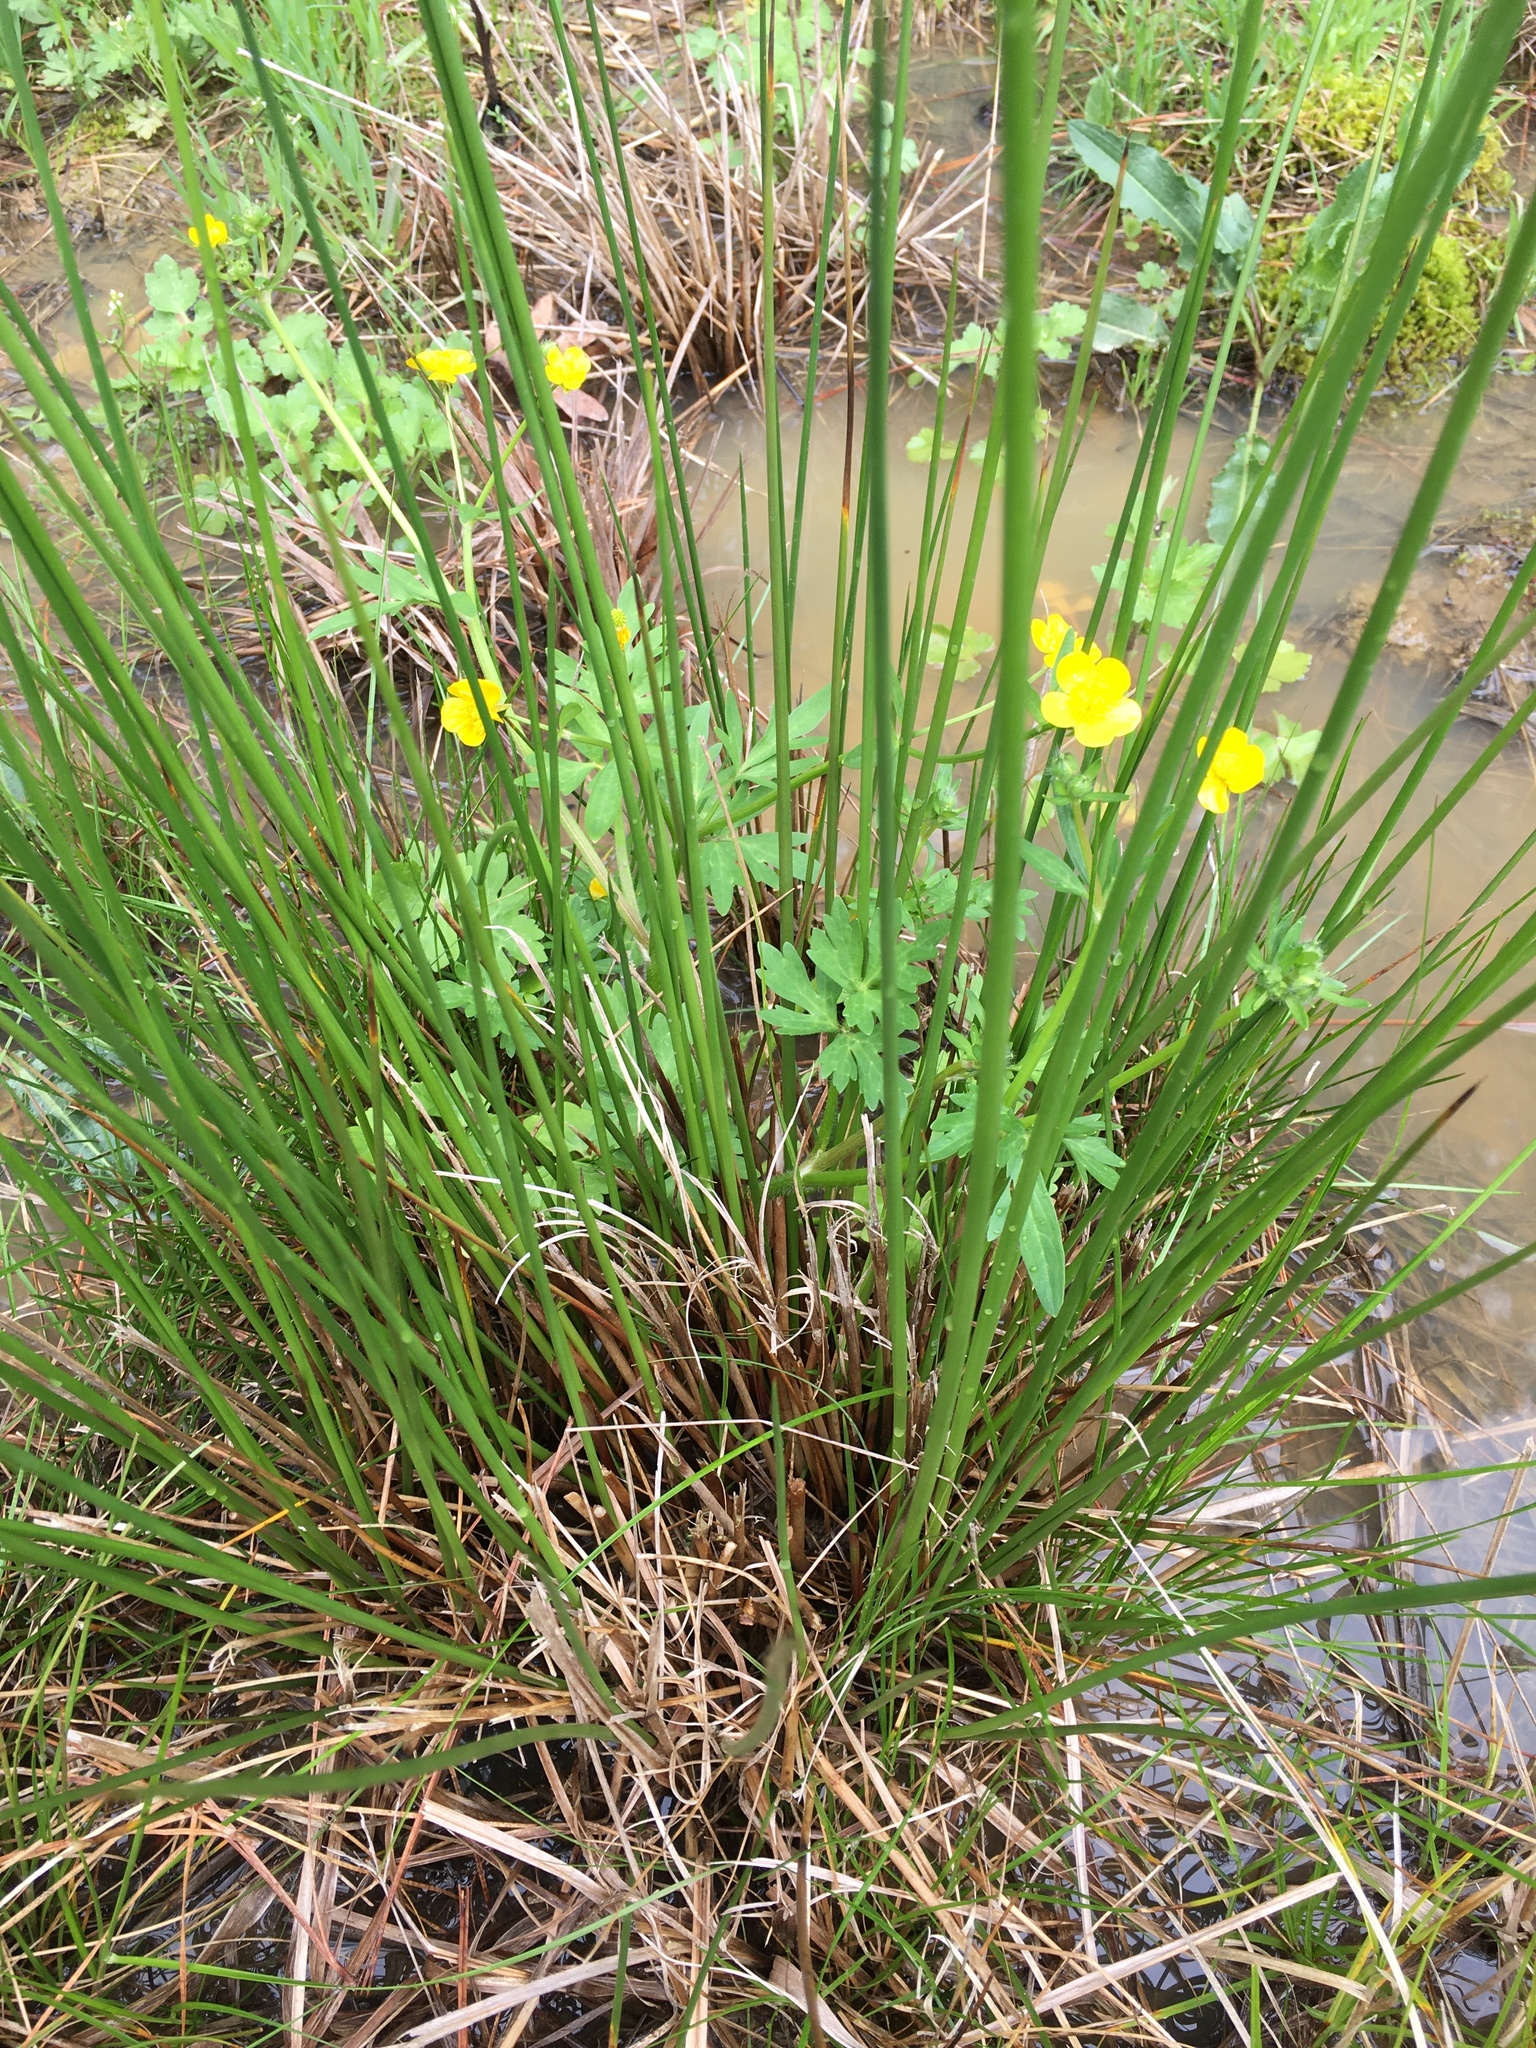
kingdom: Plantae
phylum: Tracheophyta
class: Liliopsida
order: Poales
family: Juncaceae
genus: Juncus
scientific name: Juncus effusus
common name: Soft rush
